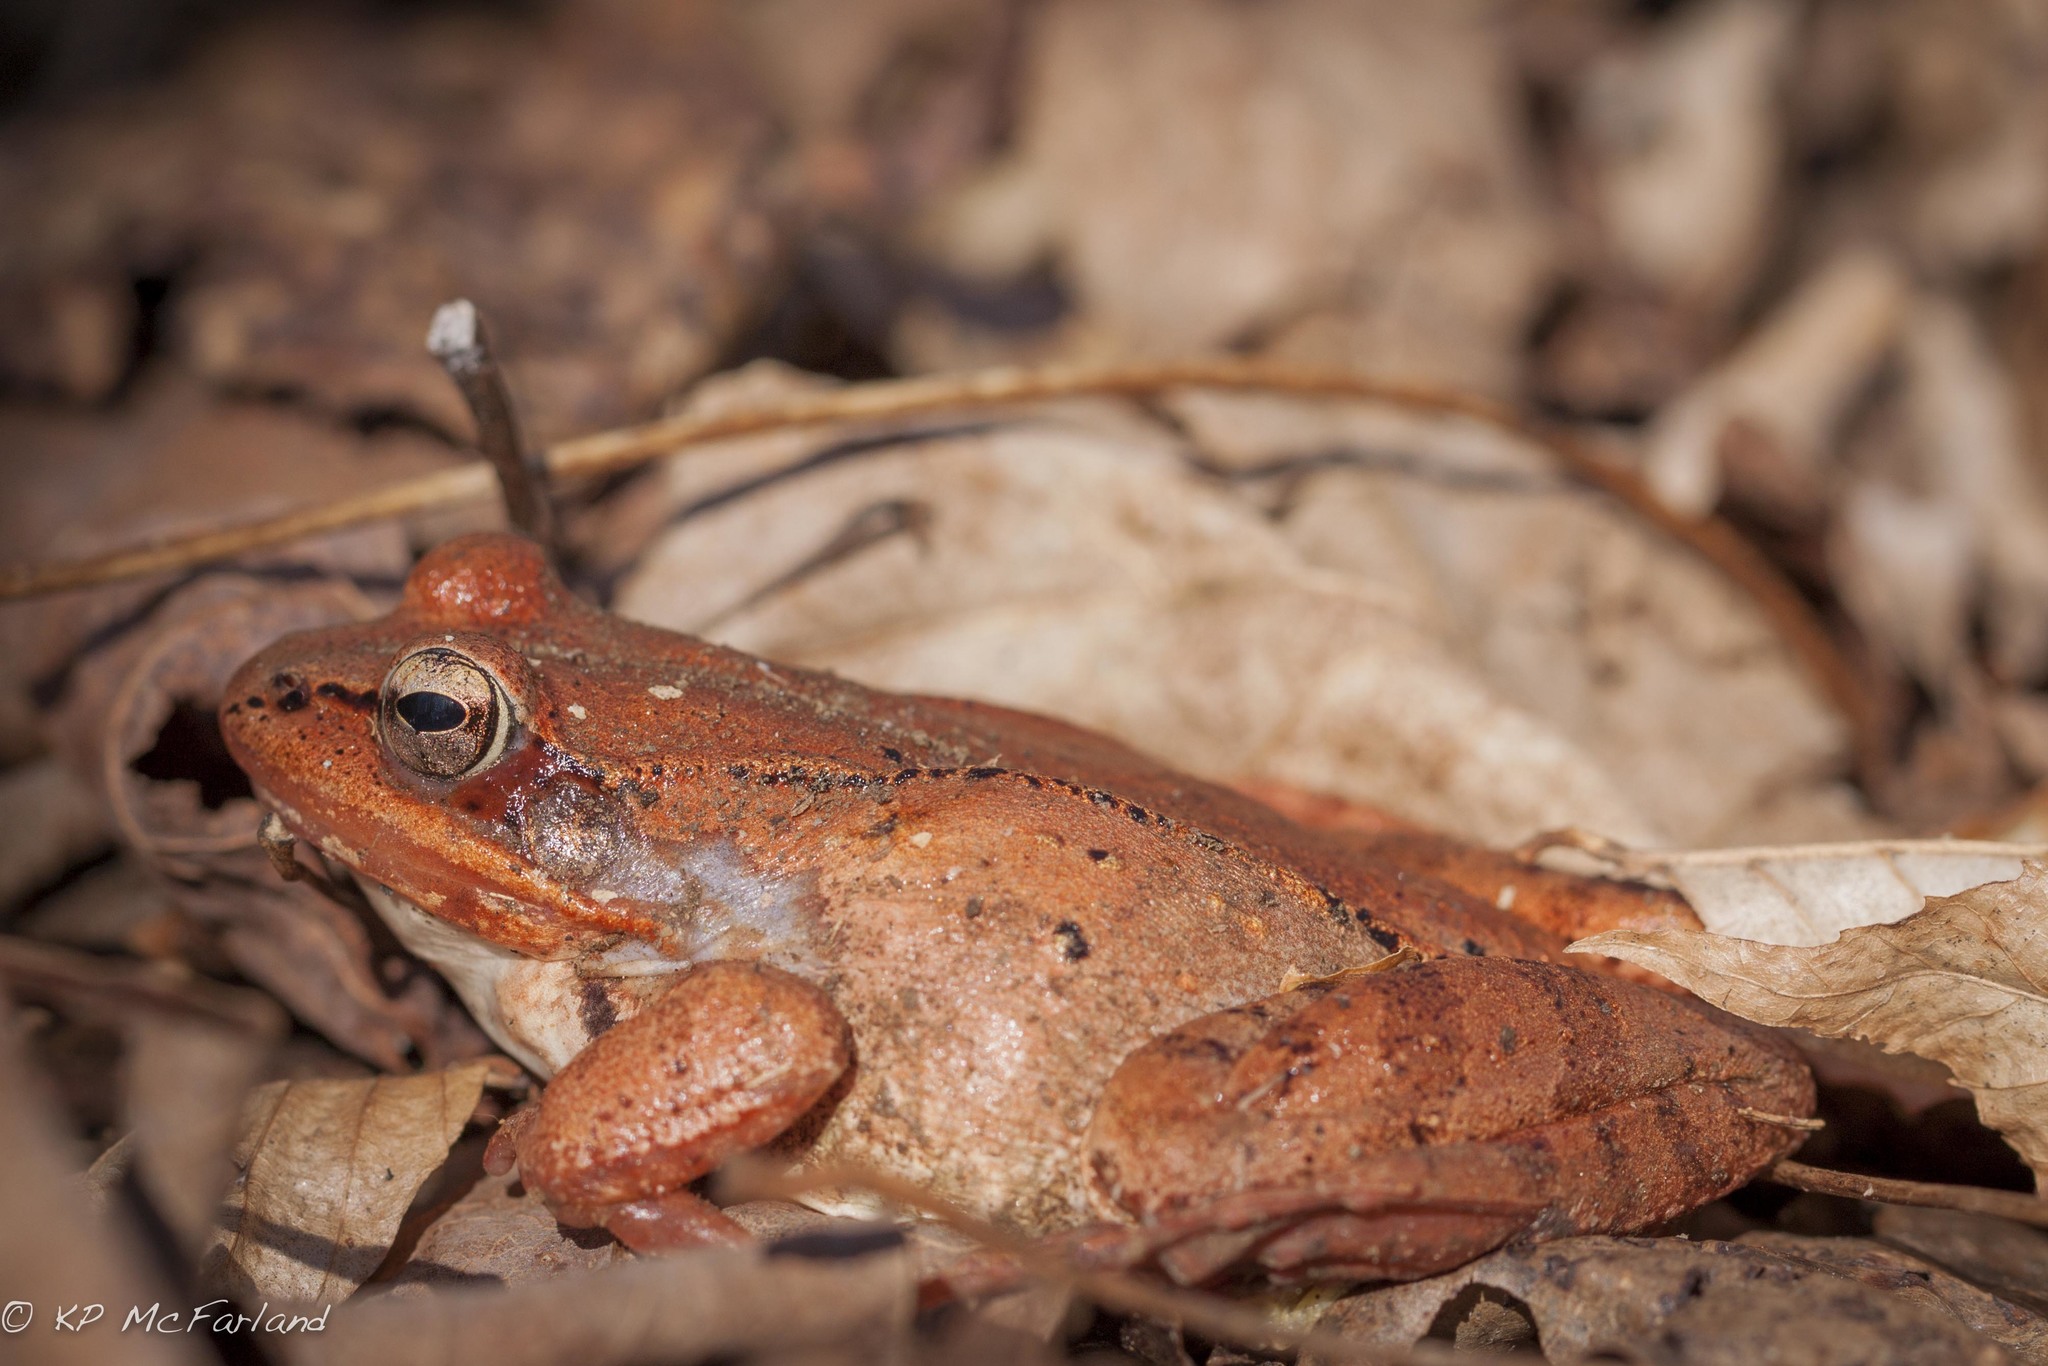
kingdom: Animalia
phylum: Chordata
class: Amphibia
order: Anura
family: Ranidae
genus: Lithobates
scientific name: Lithobates sylvaticus
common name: Wood frog
